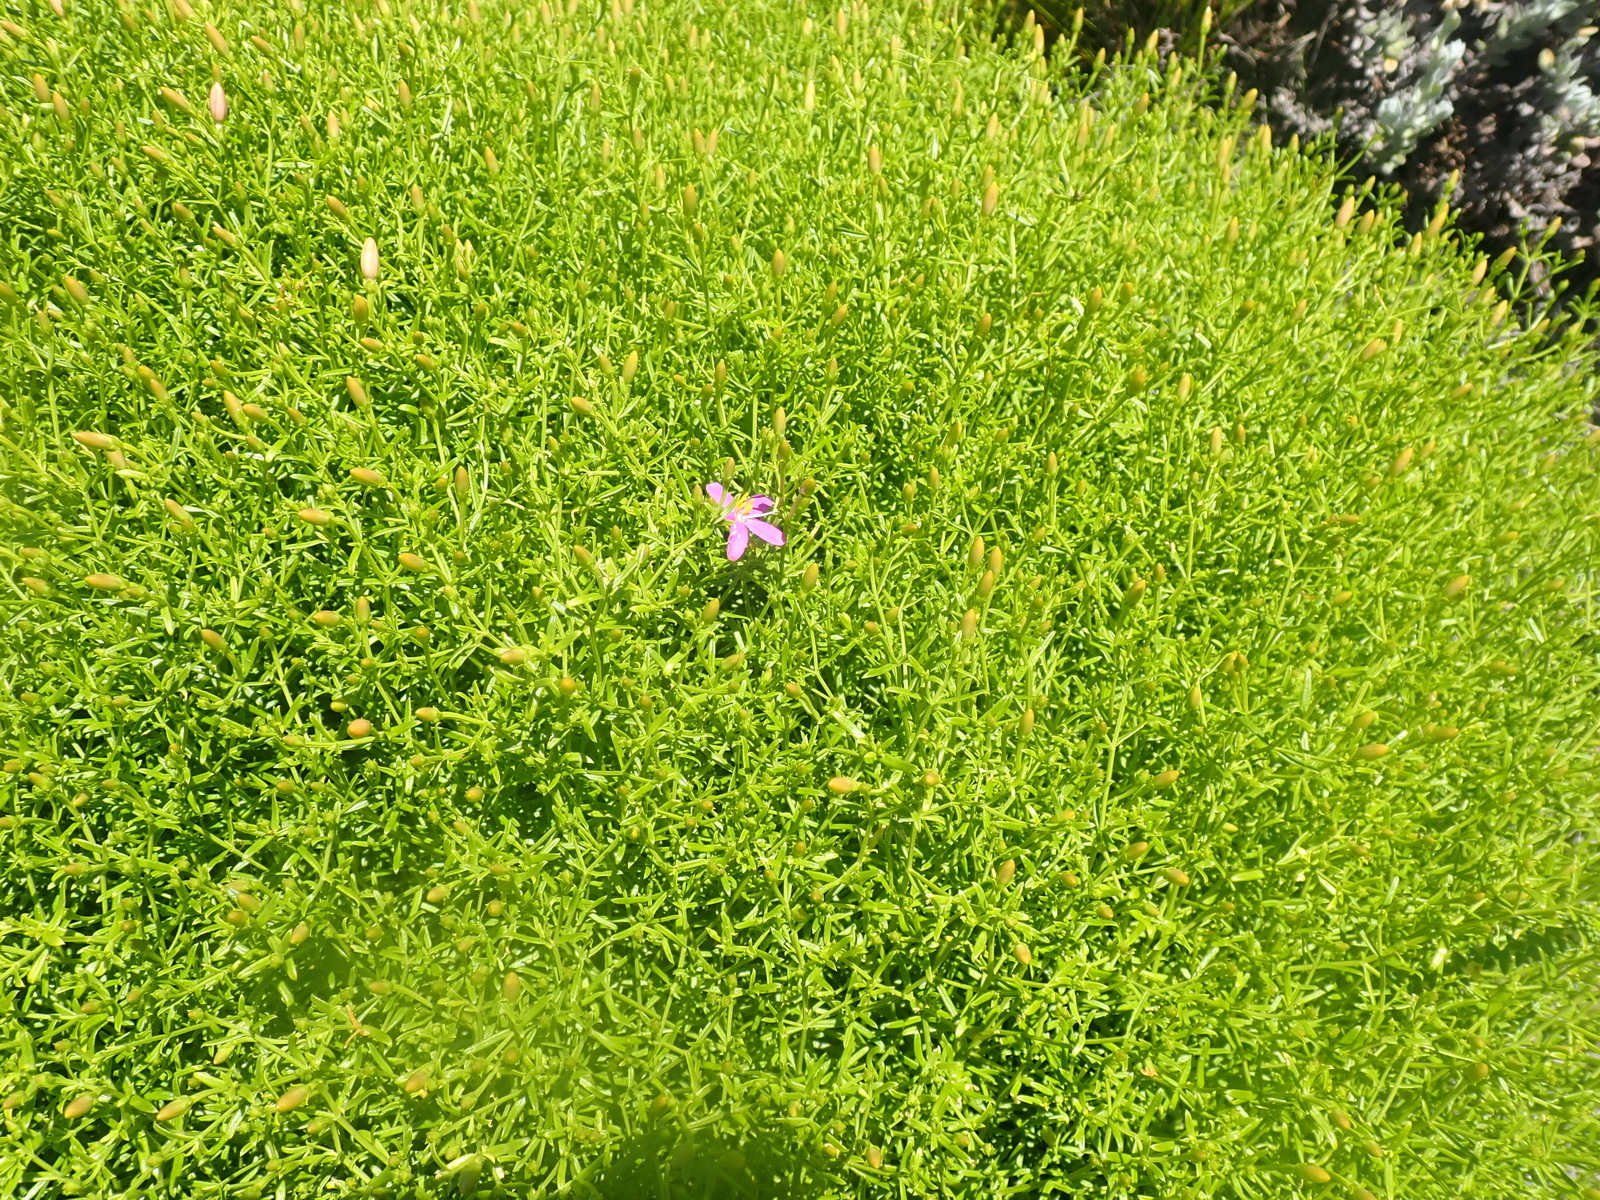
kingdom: Plantae
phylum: Tracheophyta
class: Magnoliopsida
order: Gentianales
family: Gentianaceae
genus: Chironia
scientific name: Chironia baccifera
